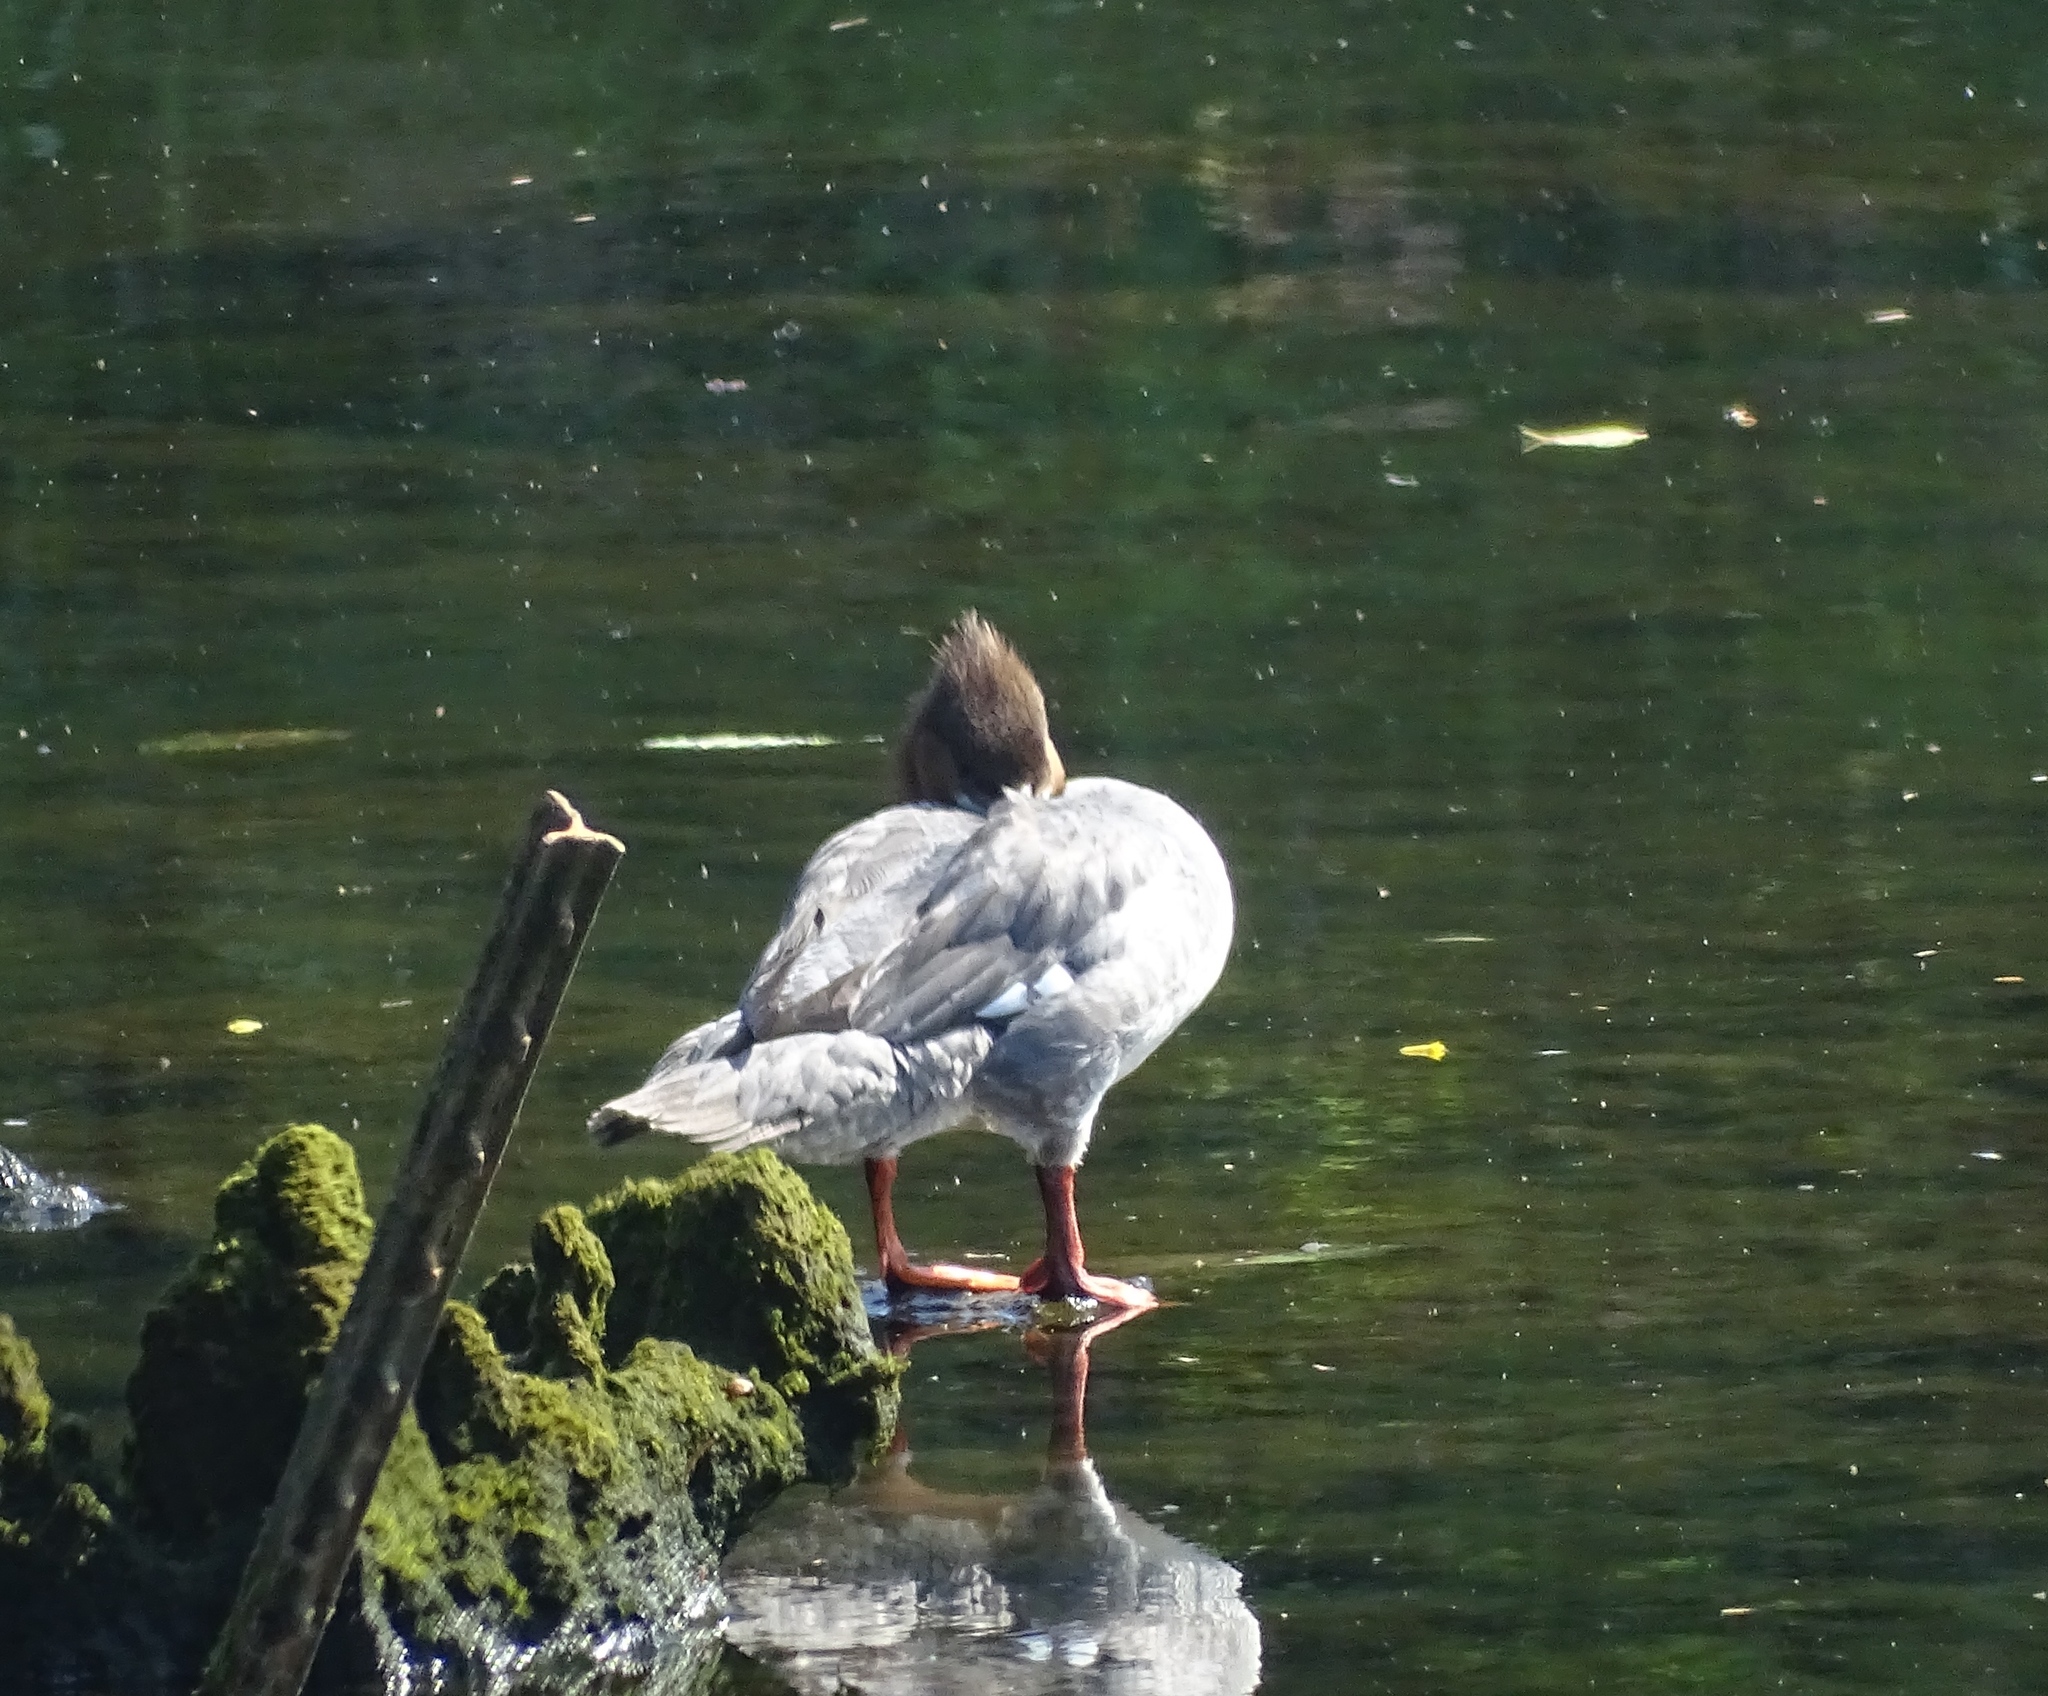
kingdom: Animalia
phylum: Chordata
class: Aves
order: Anseriformes
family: Anatidae
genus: Mergus
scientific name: Mergus merganser
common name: Common merganser
